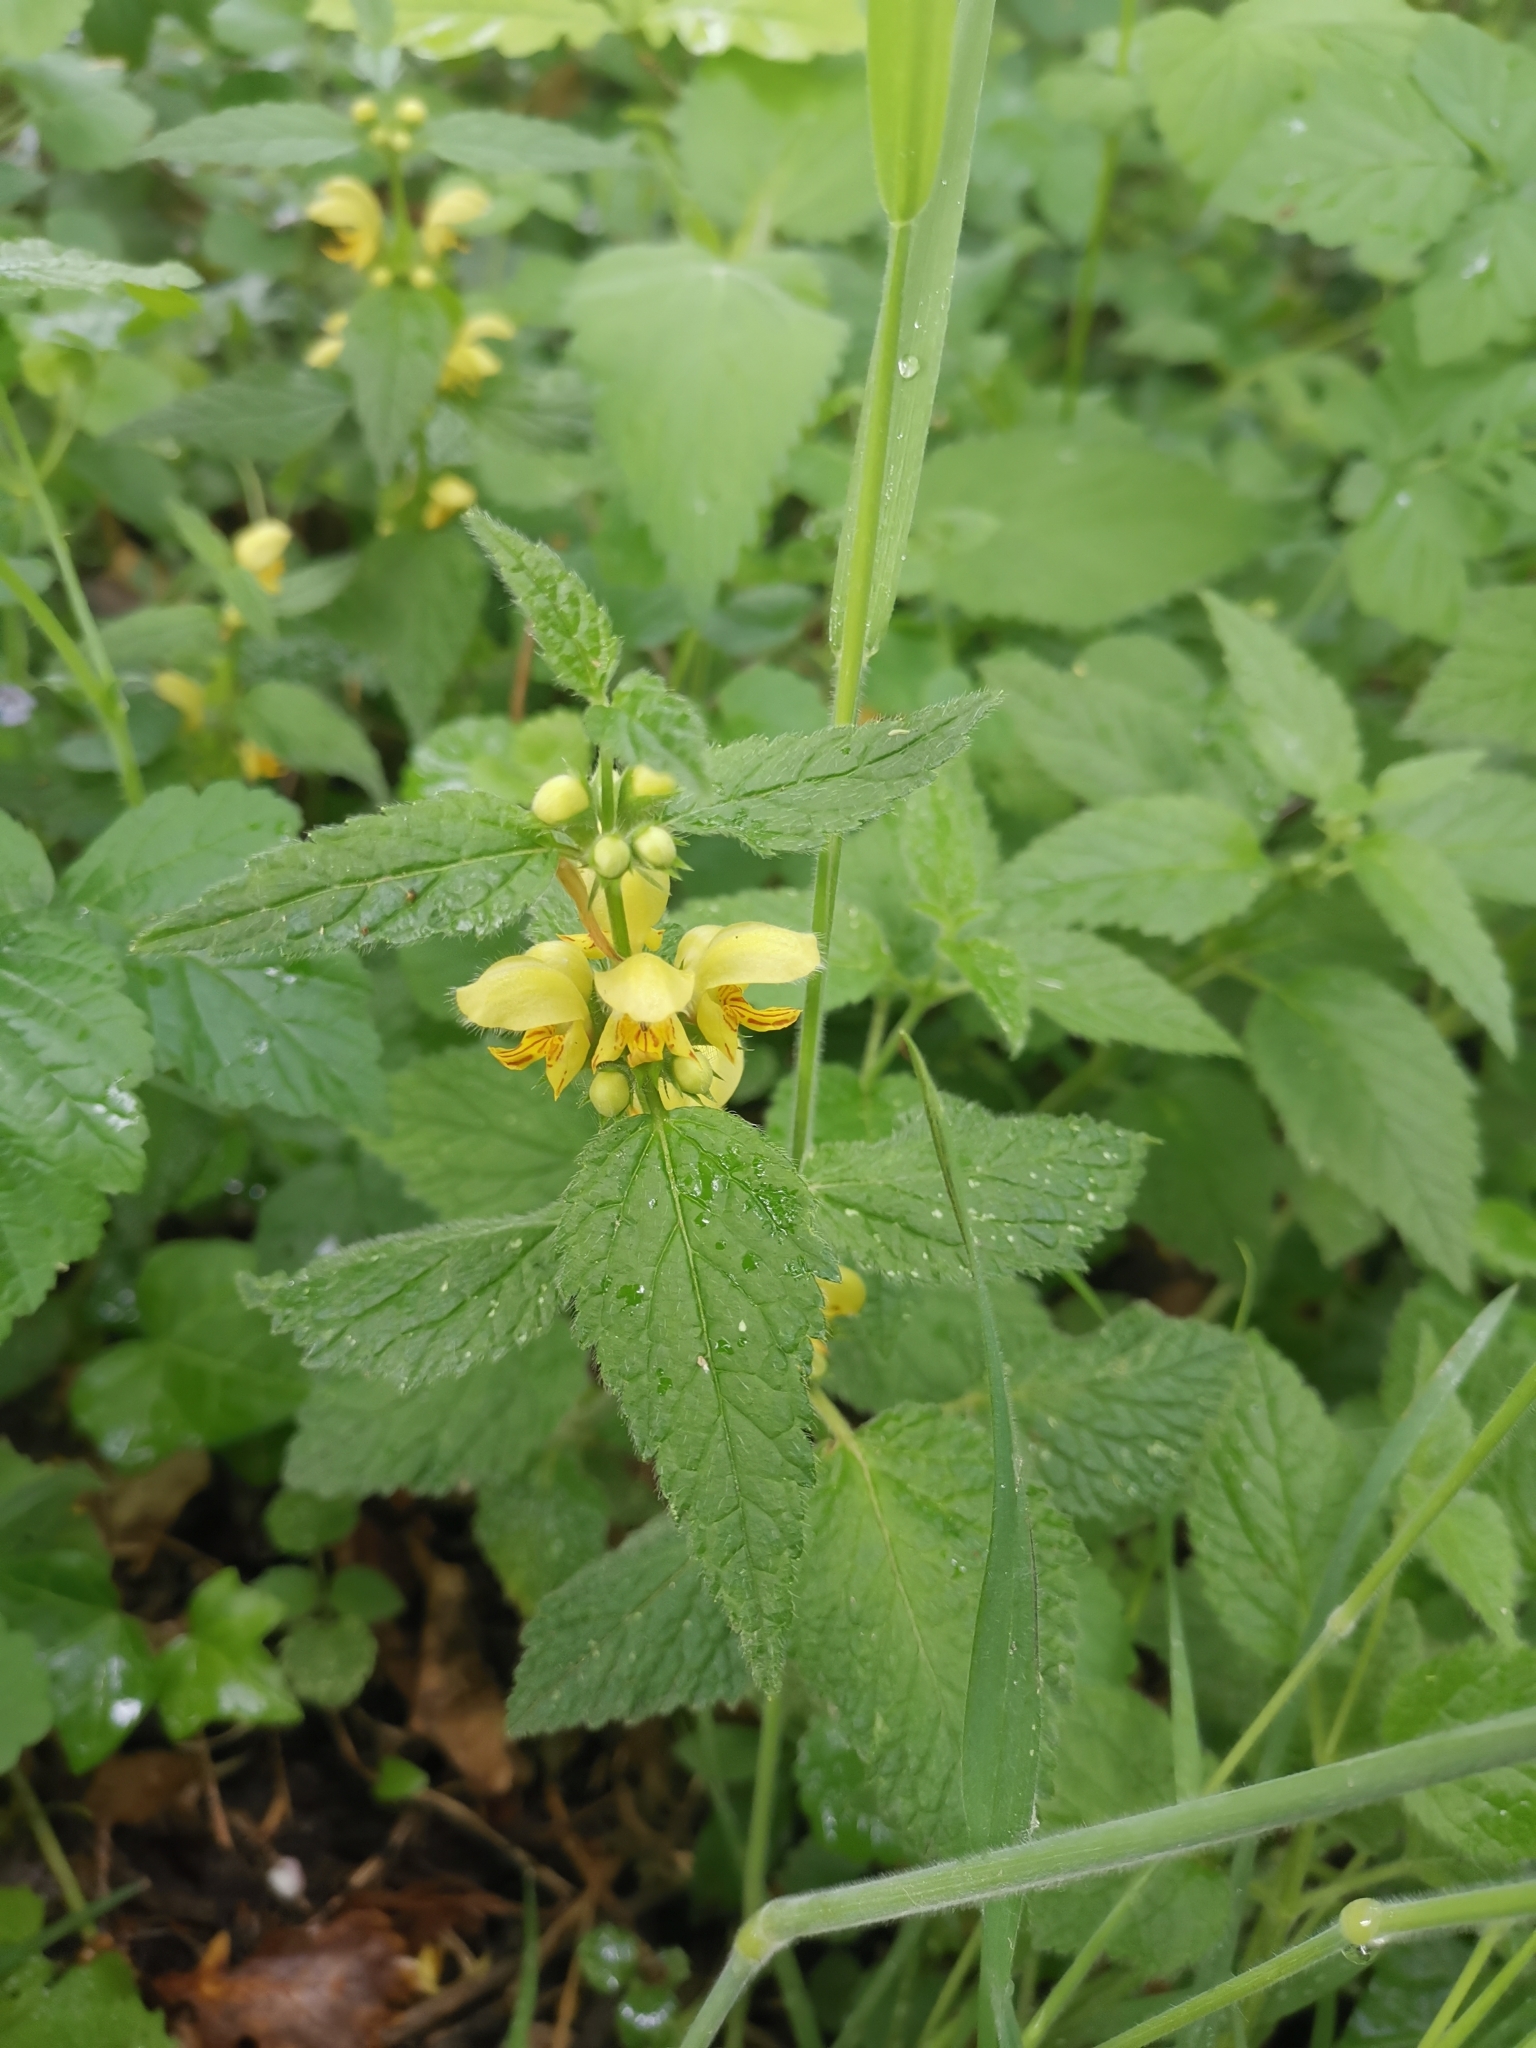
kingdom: Plantae
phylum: Tracheophyta
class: Magnoliopsida
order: Lamiales
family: Lamiaceae
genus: Lamium
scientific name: Lamium galeobdolon
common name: Yellow archangel
